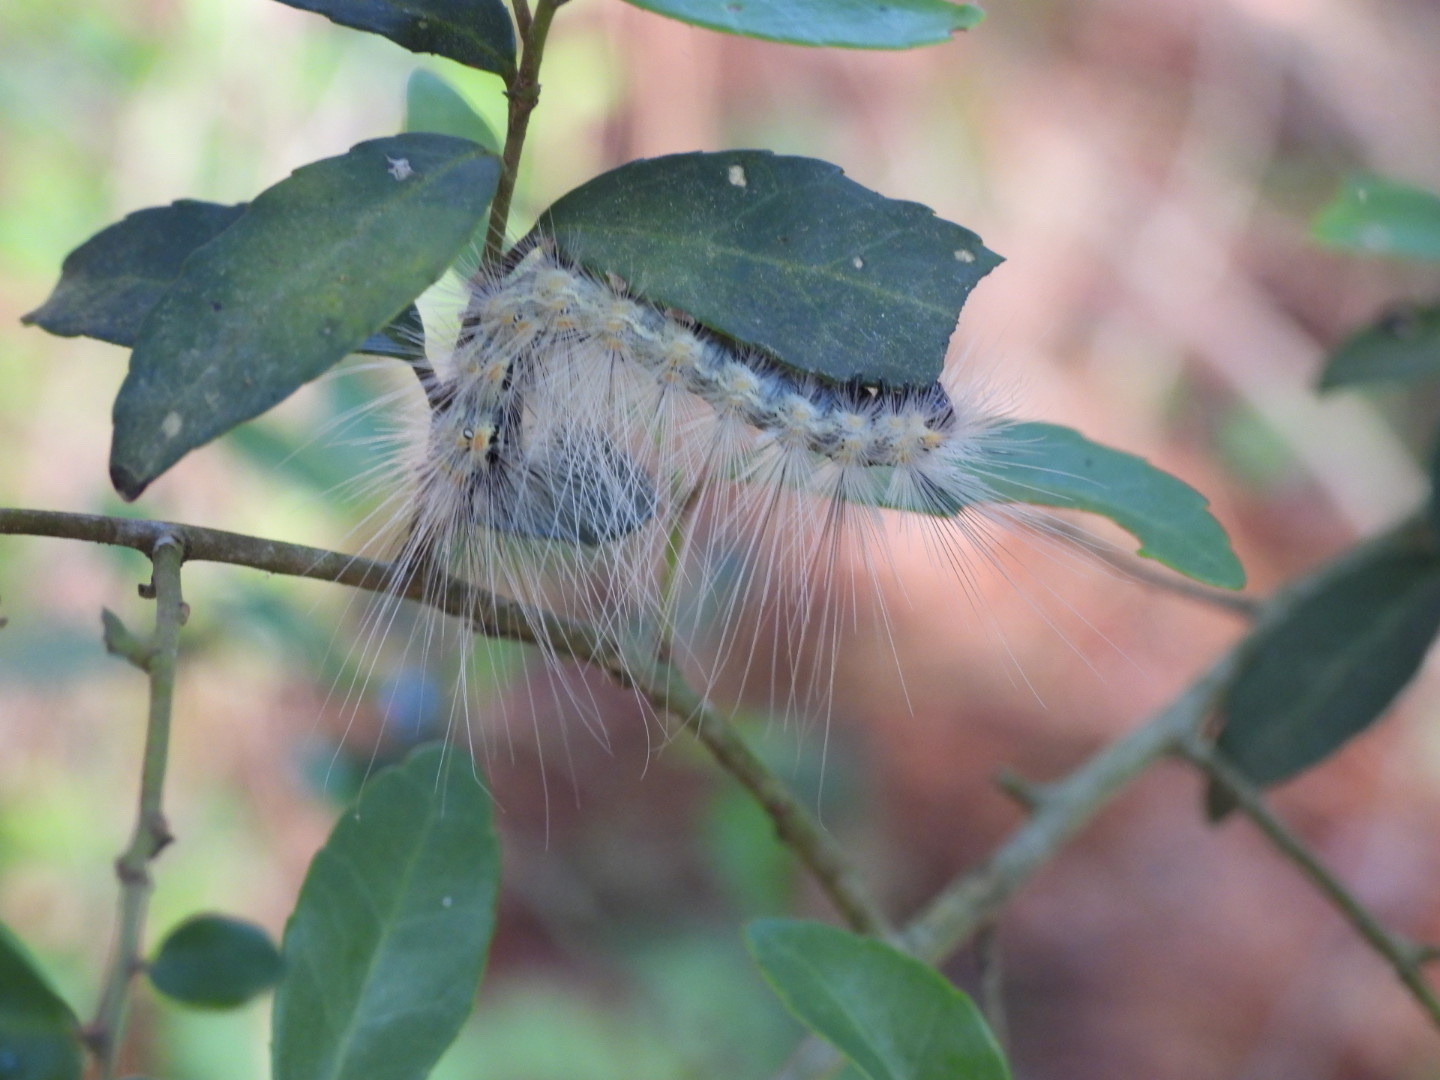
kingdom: Animalia
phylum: Arthropoda
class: Insecta
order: Lepidoptera
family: Erebidae
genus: Hyphantria
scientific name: Hyphantria cunea
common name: American white moth
